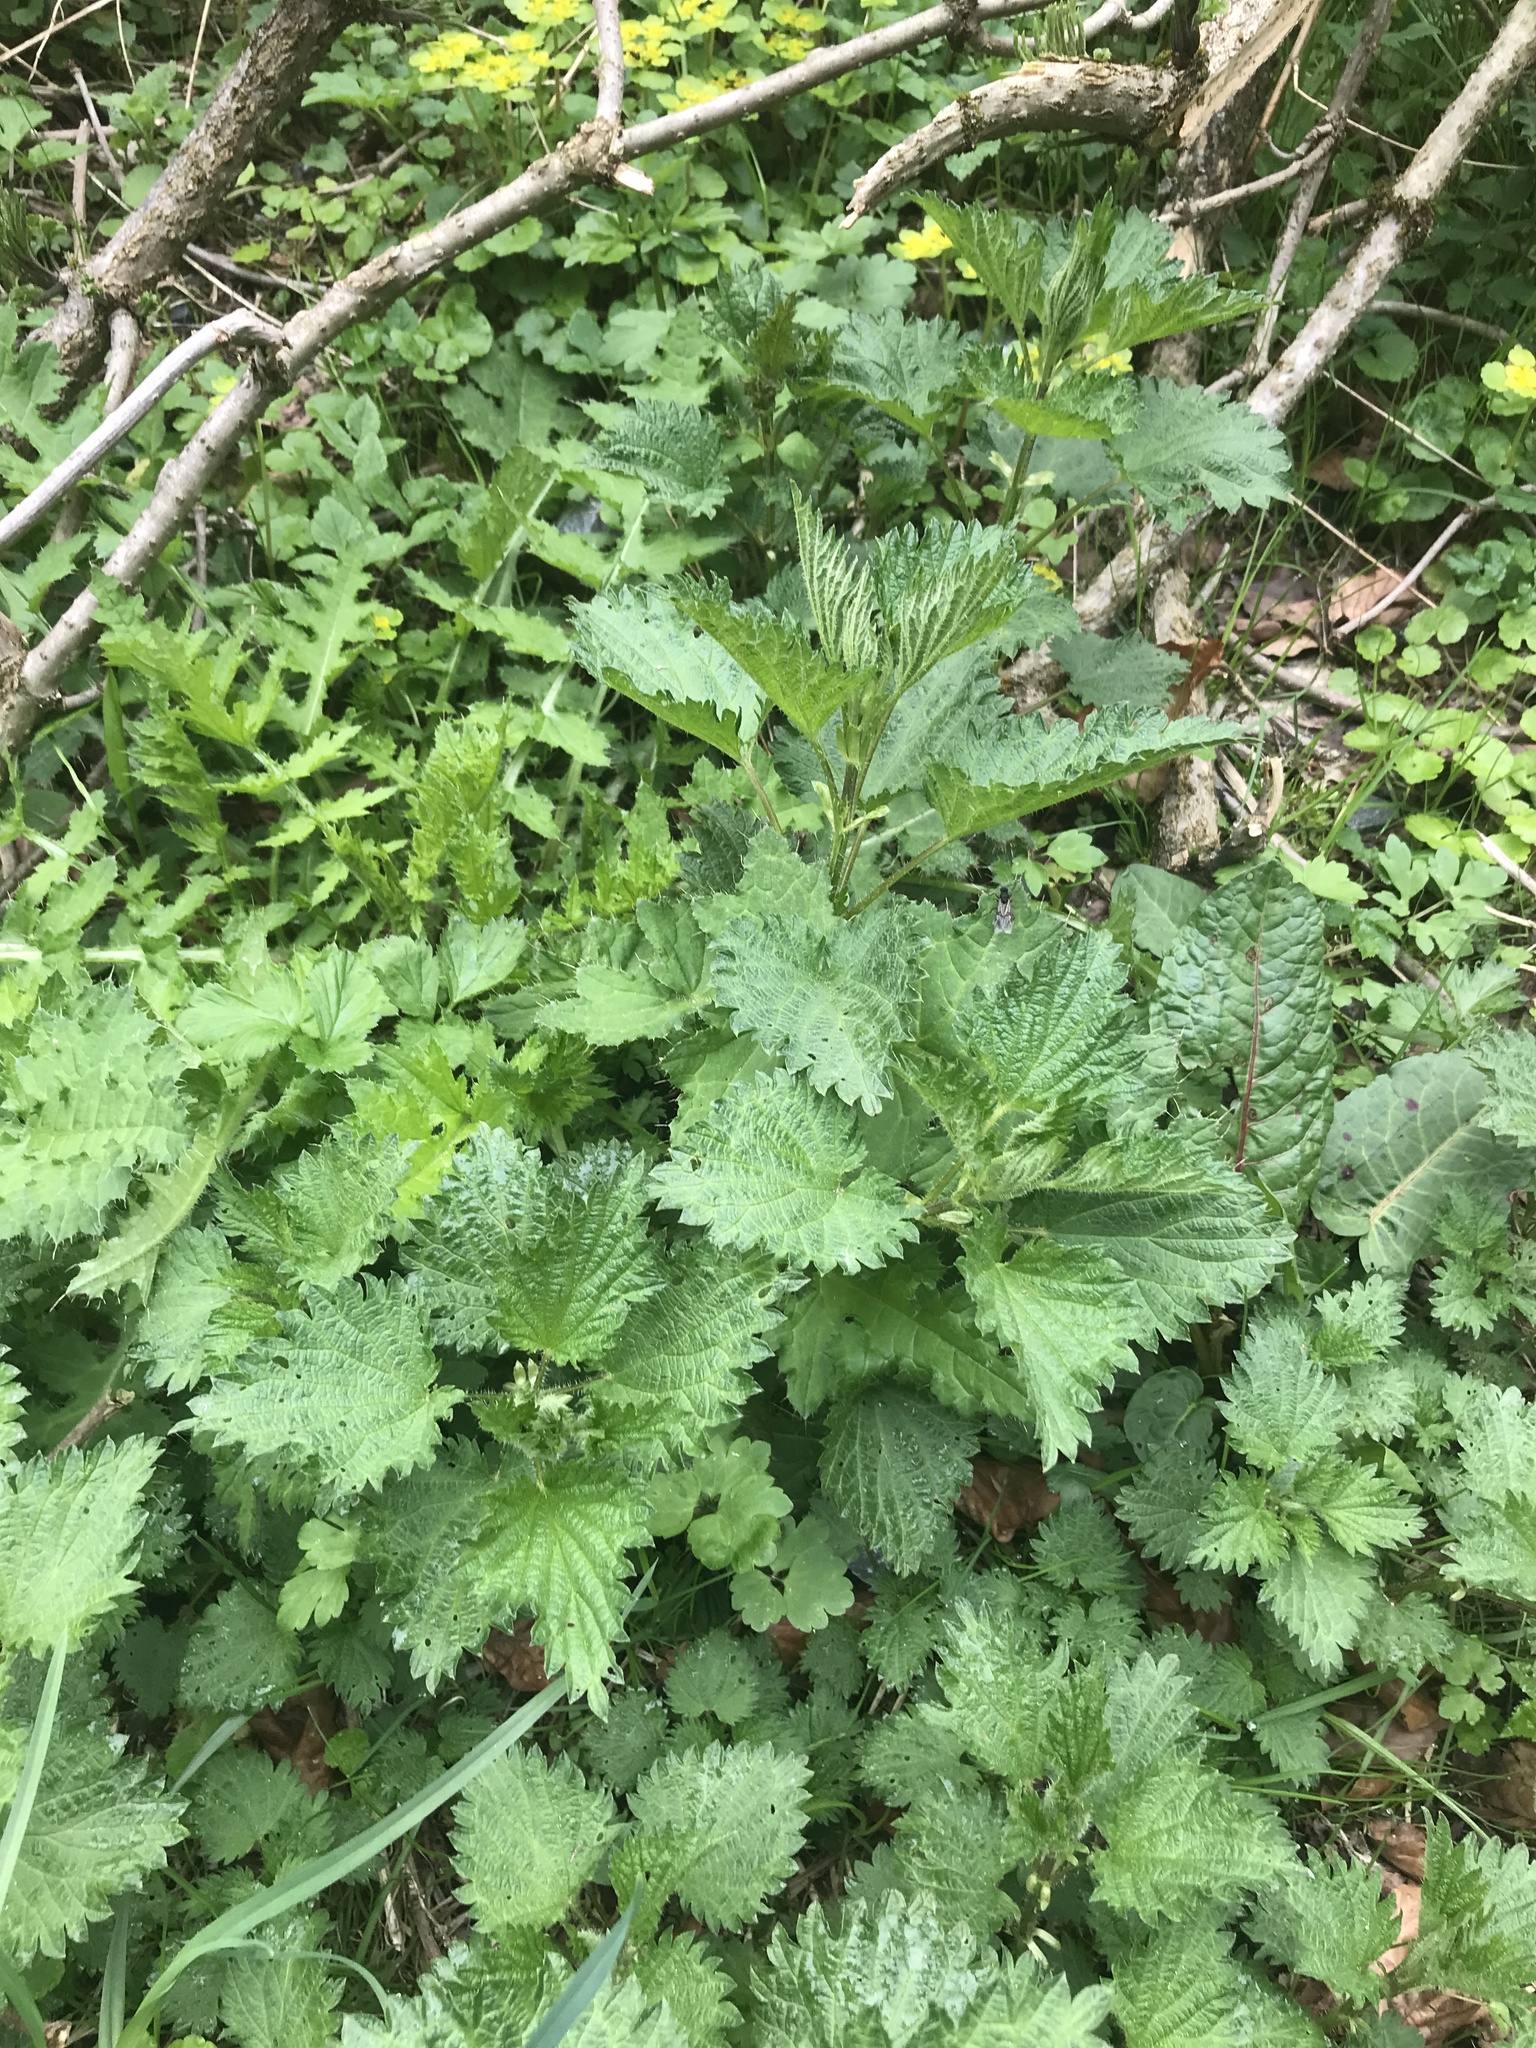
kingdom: Plantae
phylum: Tracheophyta
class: Magnoliopsida
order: Rosales
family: Urticaceae
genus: Urtica
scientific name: Urtica dioica
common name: Common nettle
